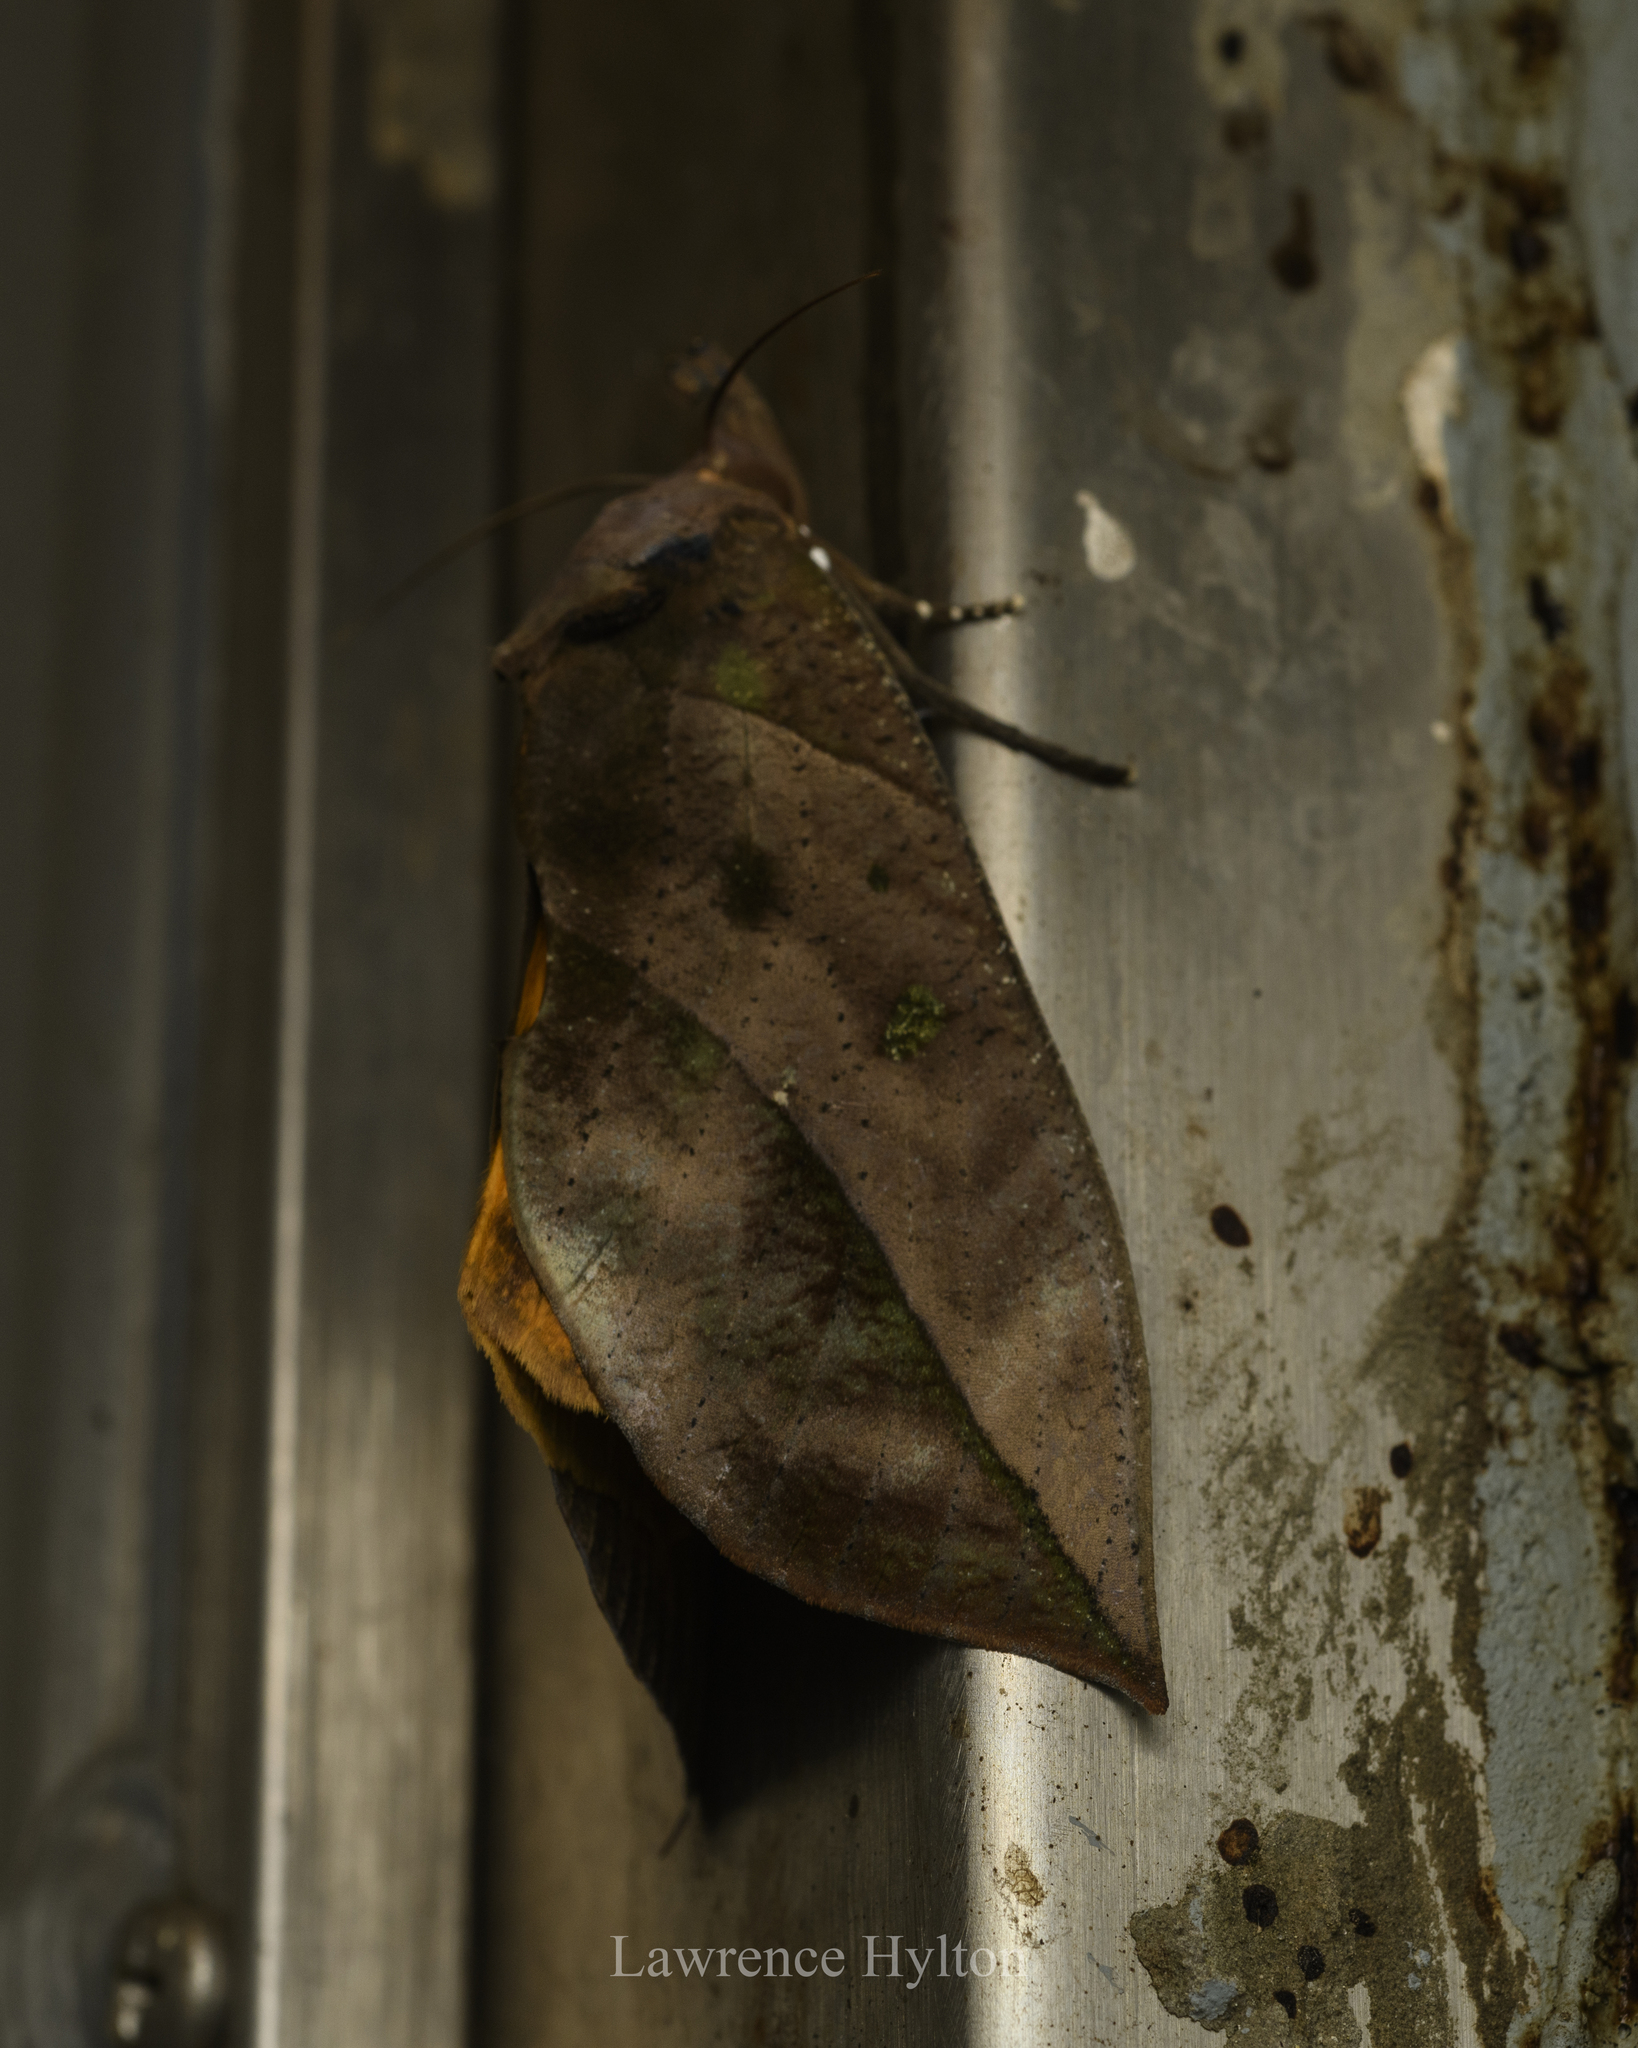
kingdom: Animalia
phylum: Arthropoda
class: Insecta
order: Lepidoptera
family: Erebidae
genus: Eudocima
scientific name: Eudocima tyrannus
